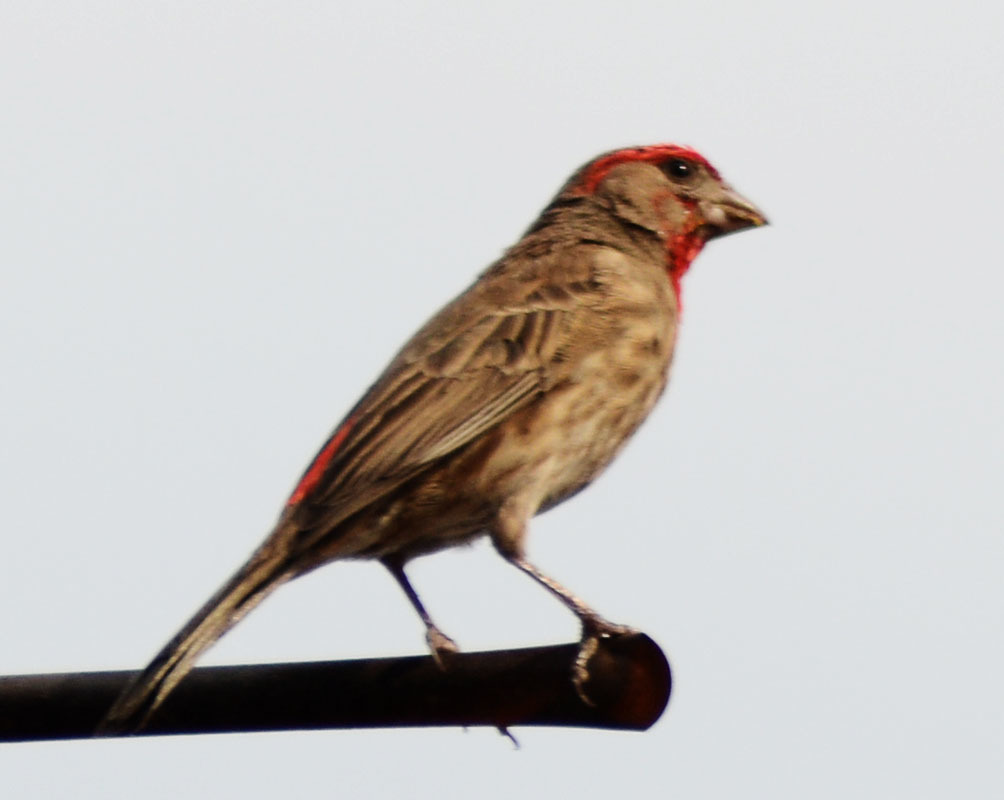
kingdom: Animalia
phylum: Chordata
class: Aves
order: Passeriformes
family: Fringillidae
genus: Haemorhous
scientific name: Haemorhous mexicanus
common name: House finch
